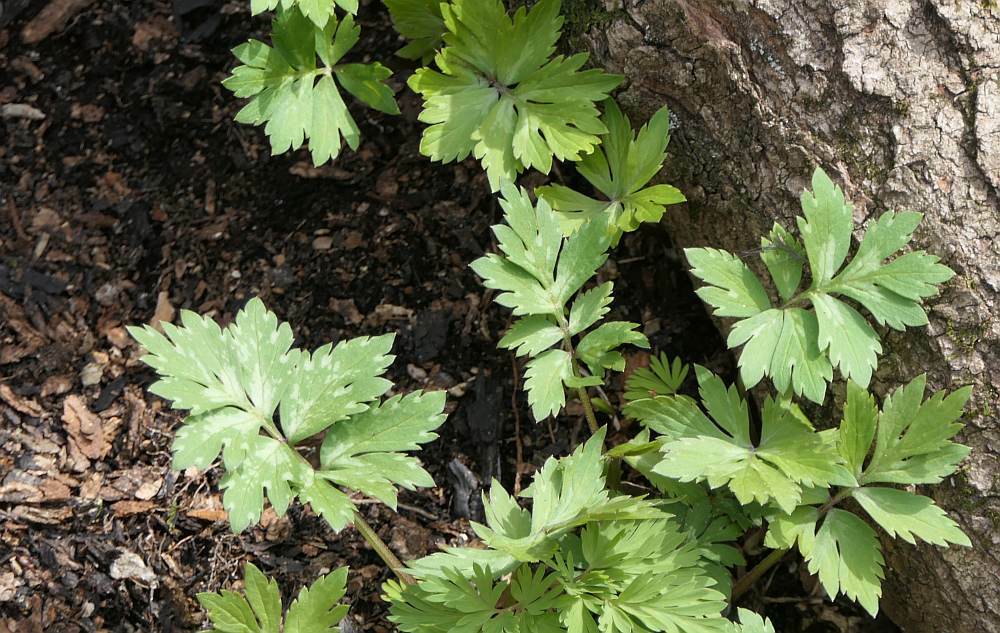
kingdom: Plantae
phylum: Tracheophyta
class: Magnoliopsida
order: Boraginales
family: Hydrophyllaceae
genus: Hydrophyllum
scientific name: Hydrophyllum virginianum
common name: Virginia waterleaf
